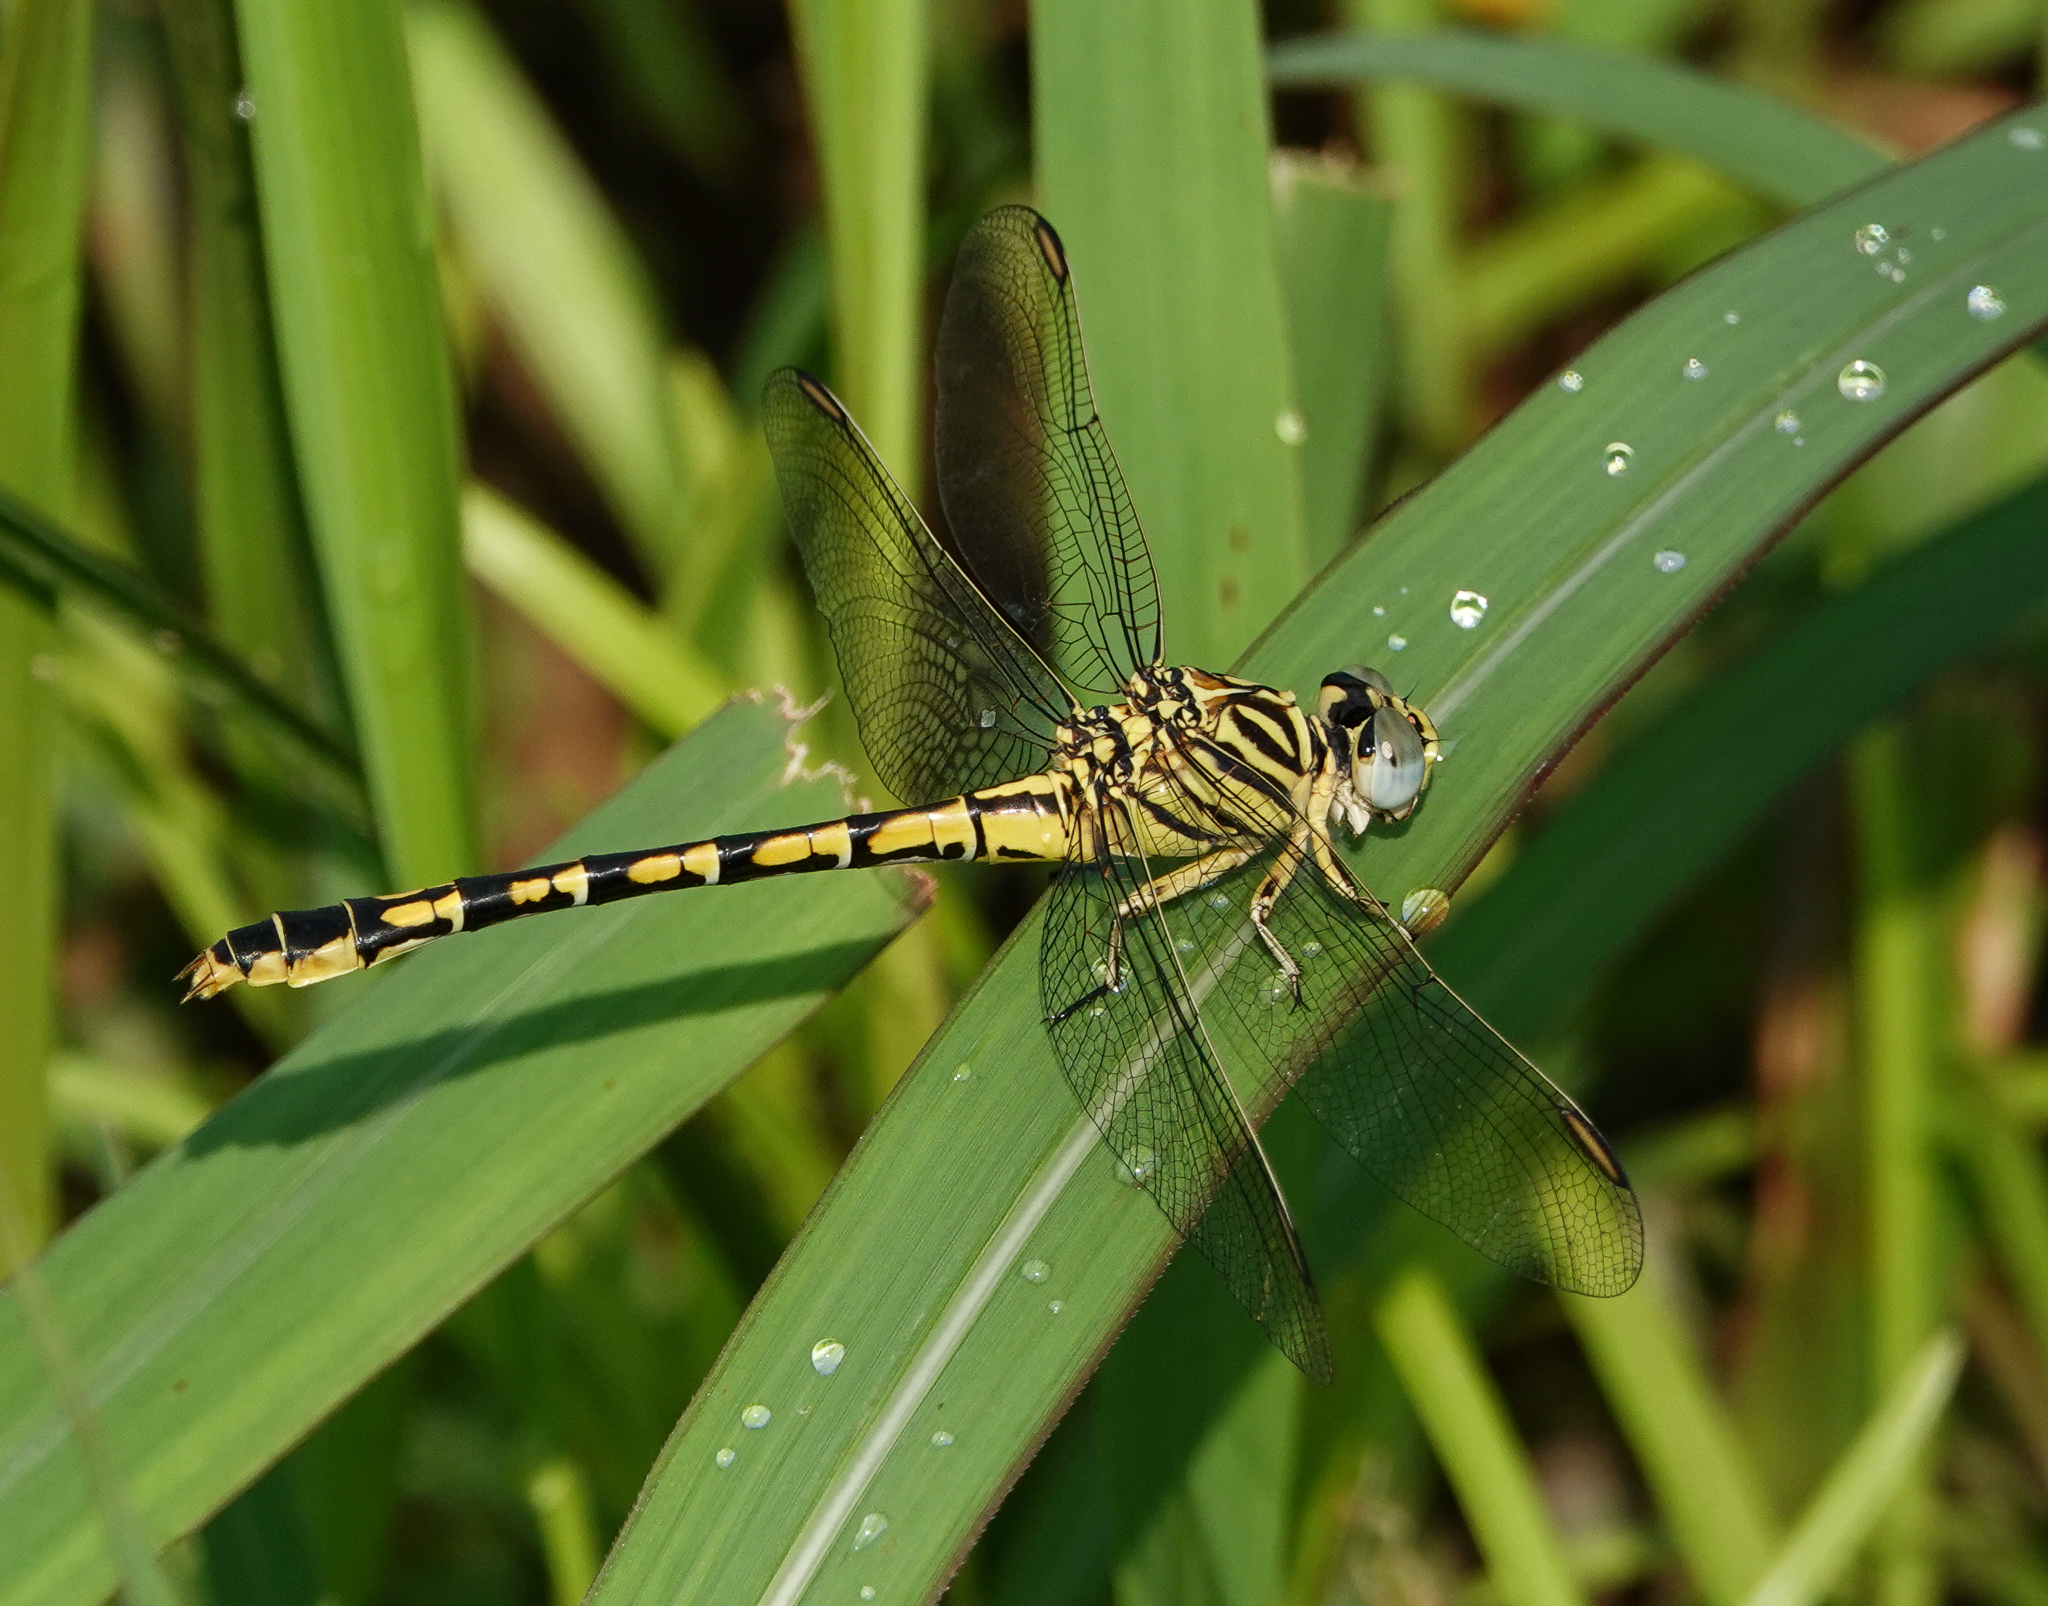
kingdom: Animalia
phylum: Arthropoda
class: Insecta
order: Odonata
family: Gomphidae
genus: Paragomphus
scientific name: Paragomphus lineatus
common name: Lined hooktail
